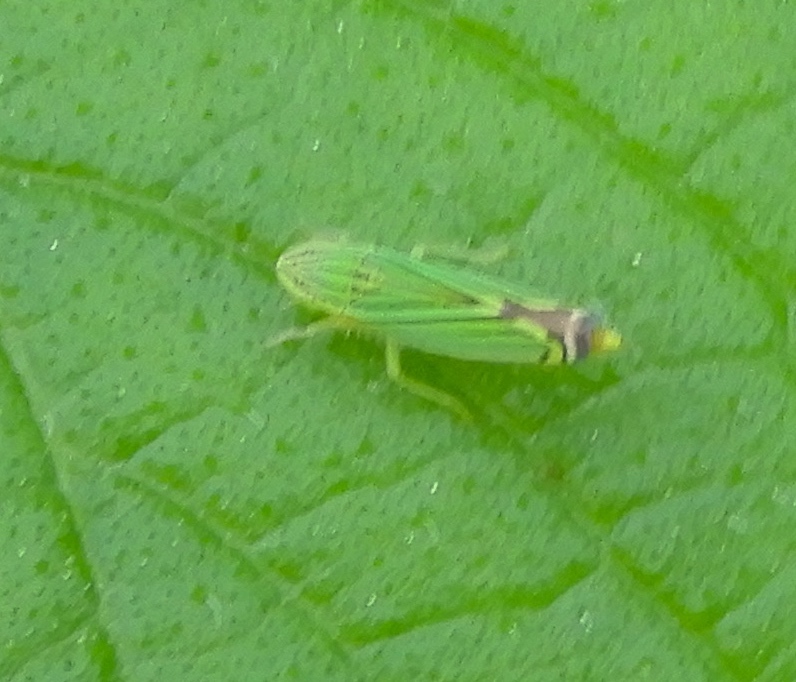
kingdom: Animalia
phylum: Arthropoda
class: Insecta
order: Hemiptera
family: Cicadellidae
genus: Sibovia
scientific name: Sibovia
